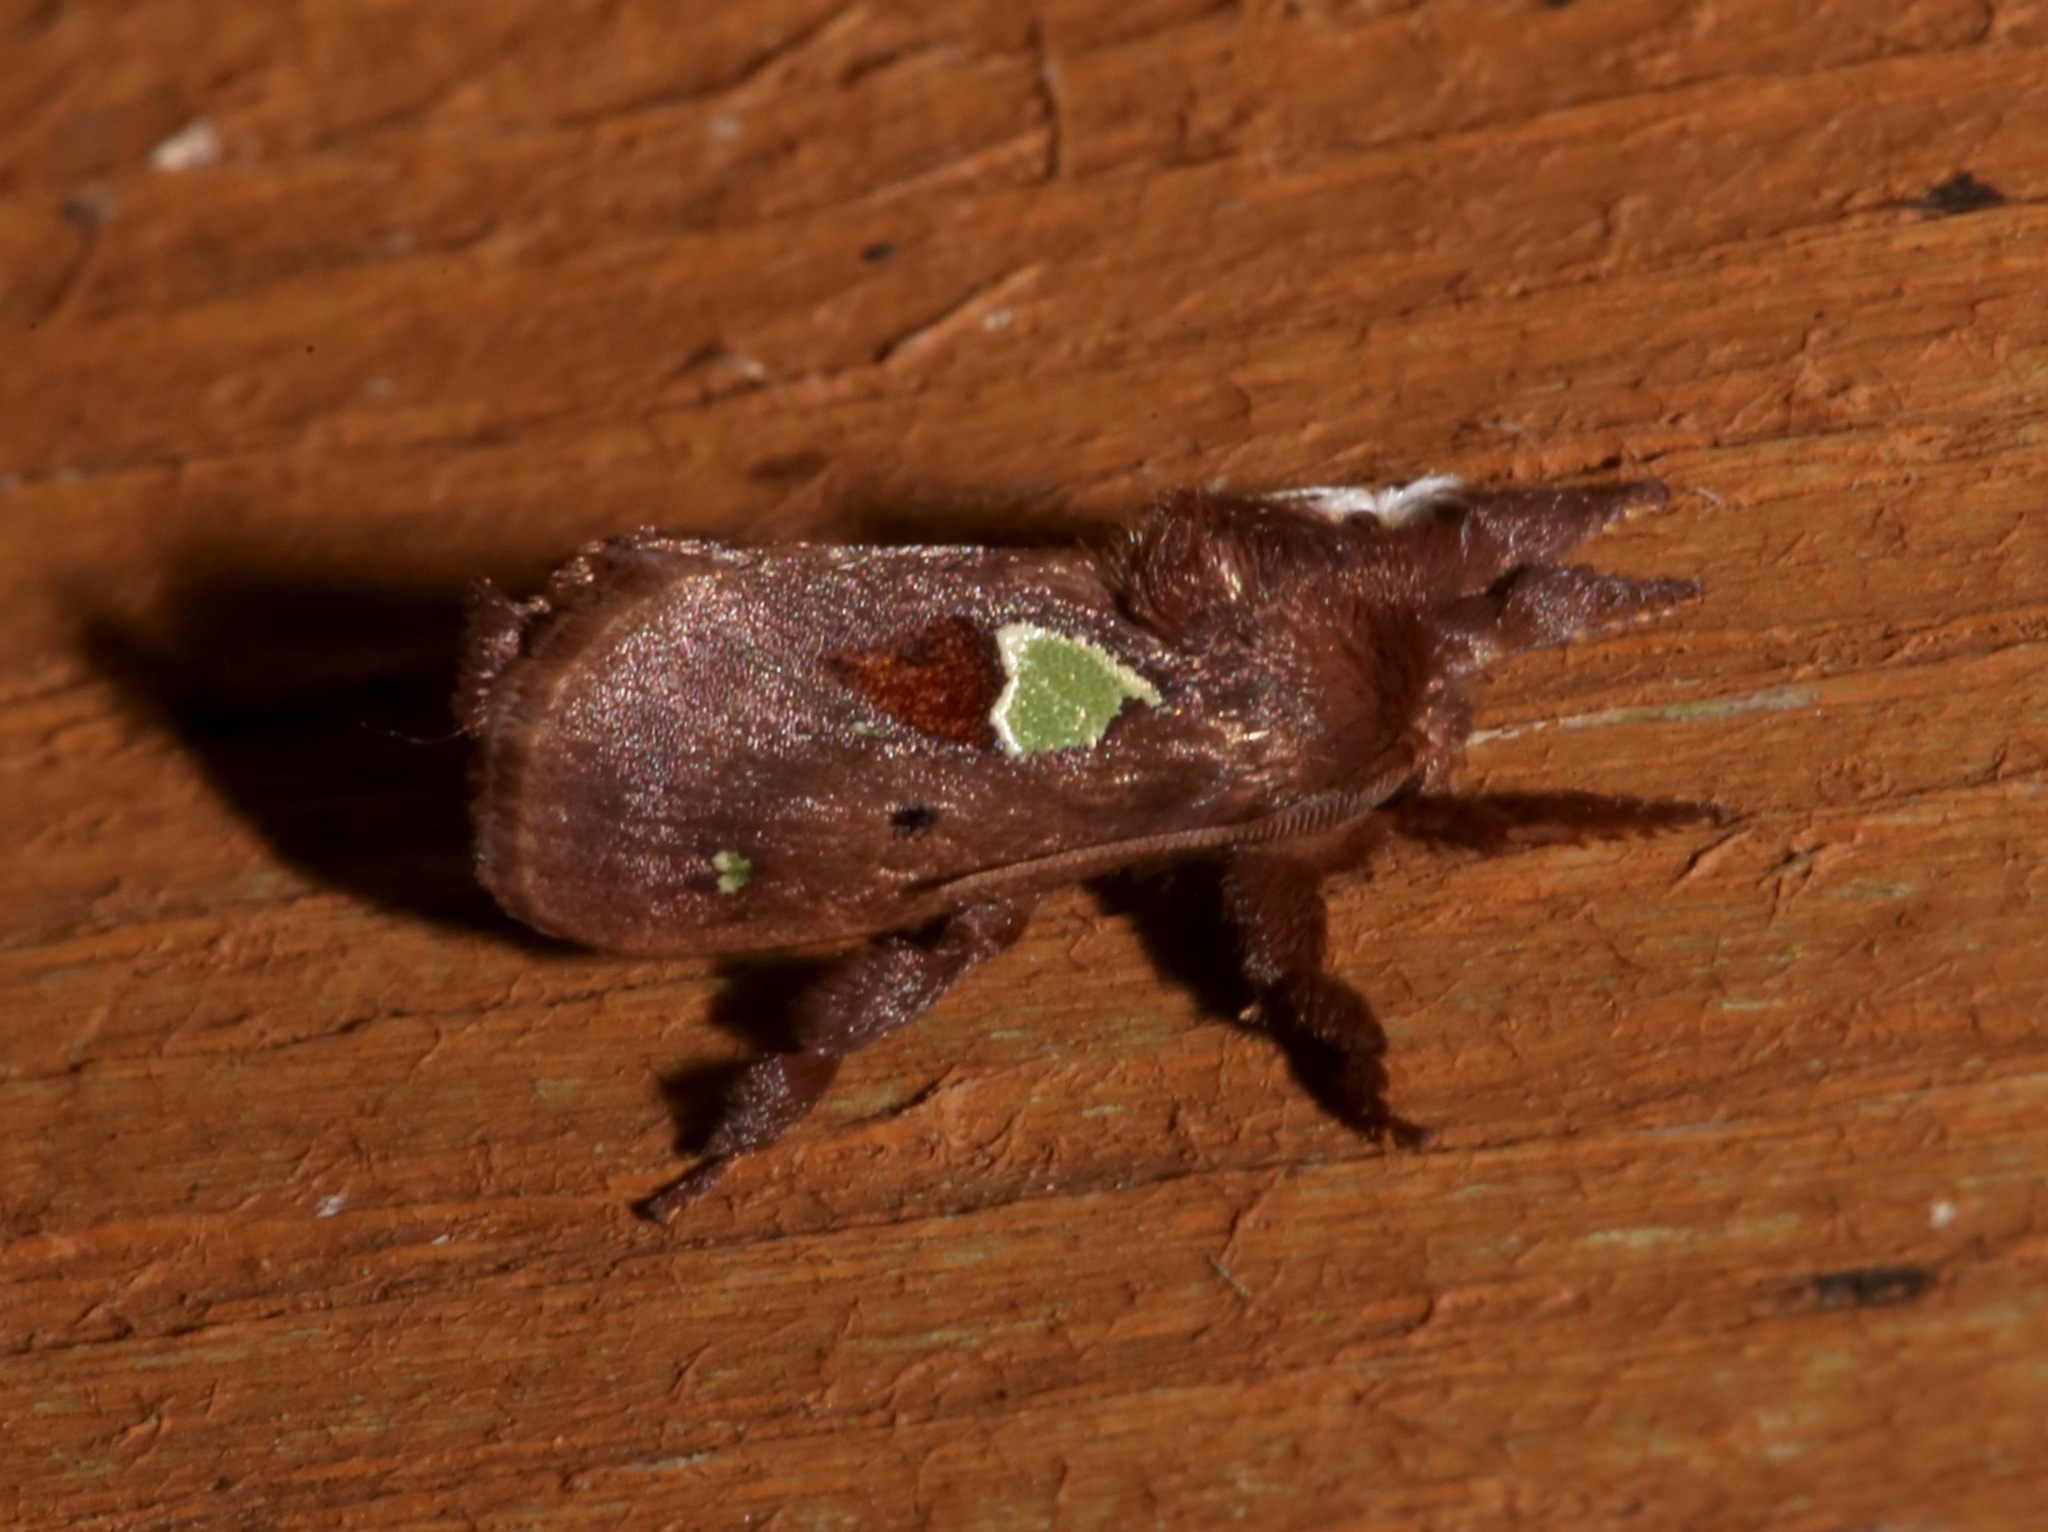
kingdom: Animalia
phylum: Arthropoda
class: Insecta
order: Lepidoptera
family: Limacodidae
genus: Euclea
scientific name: Euclea delphinii
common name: Spiny oak-slug moth
